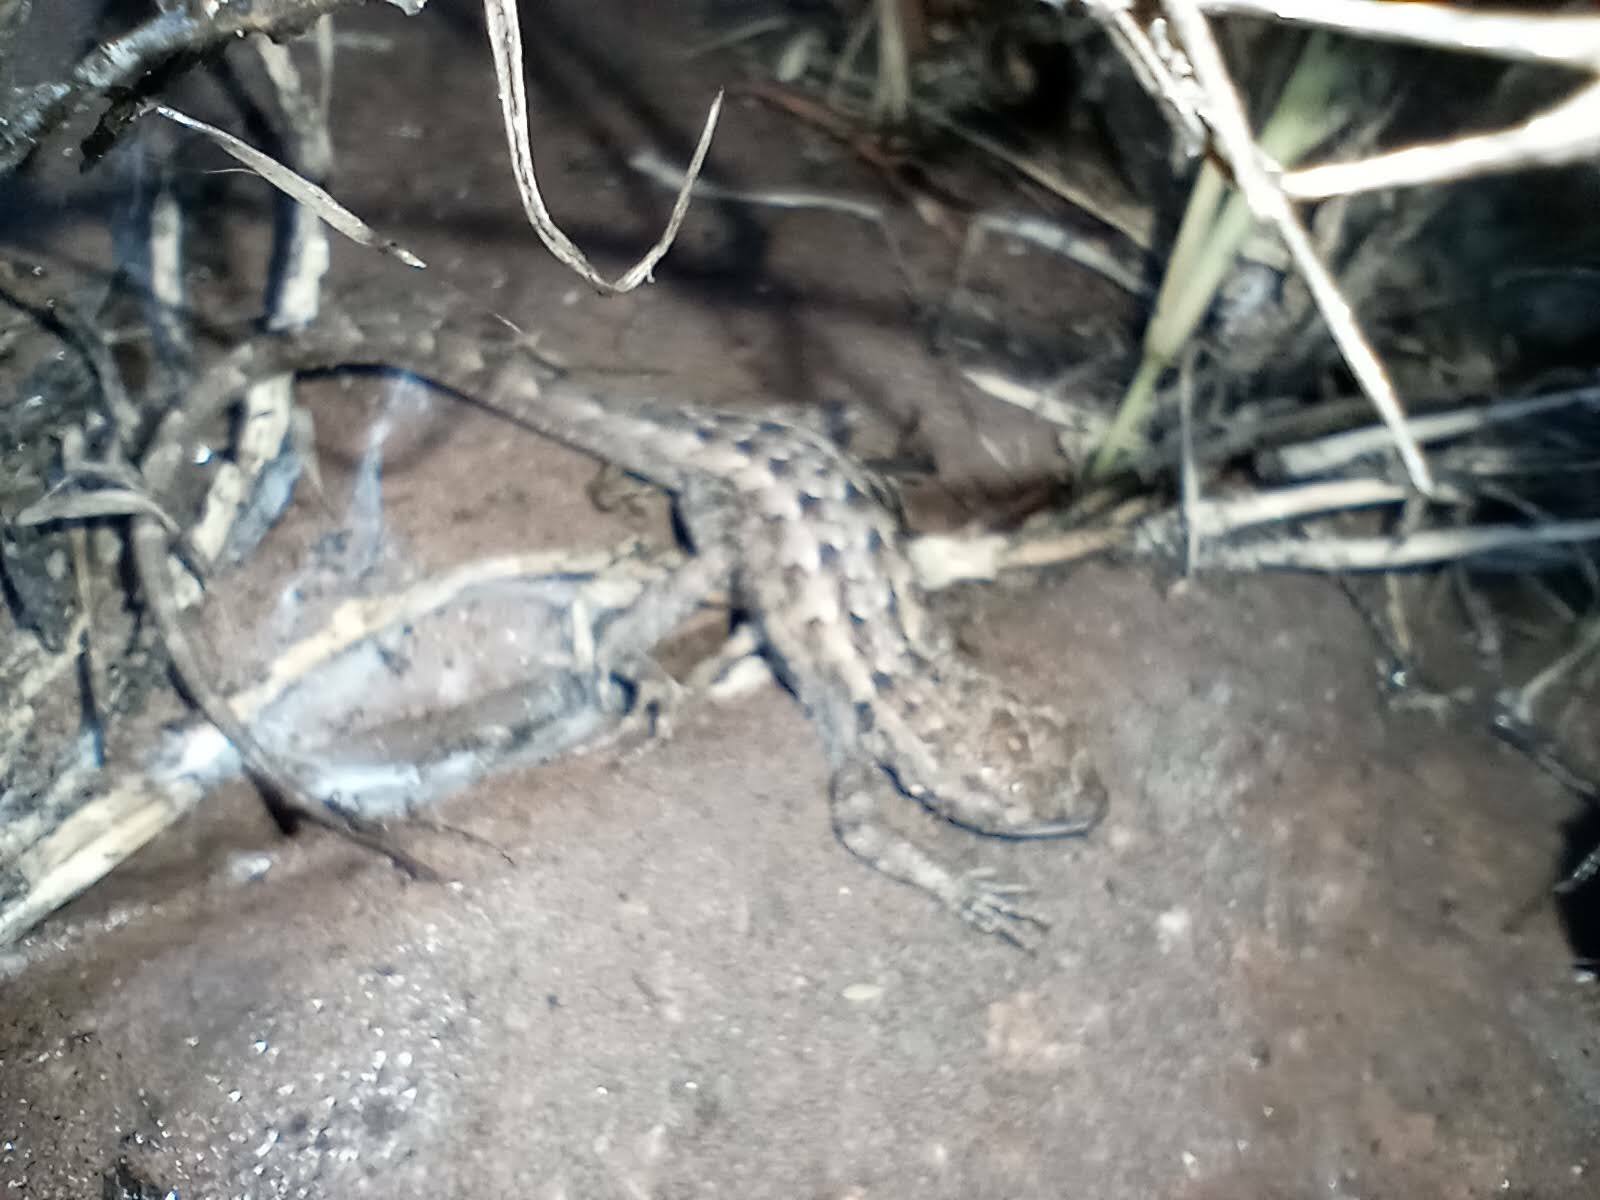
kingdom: Animalia
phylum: Chordata
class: Squamata
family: Phrynosomatidae
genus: Uta
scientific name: Uta stansburiana
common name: Side-blotched lizard
